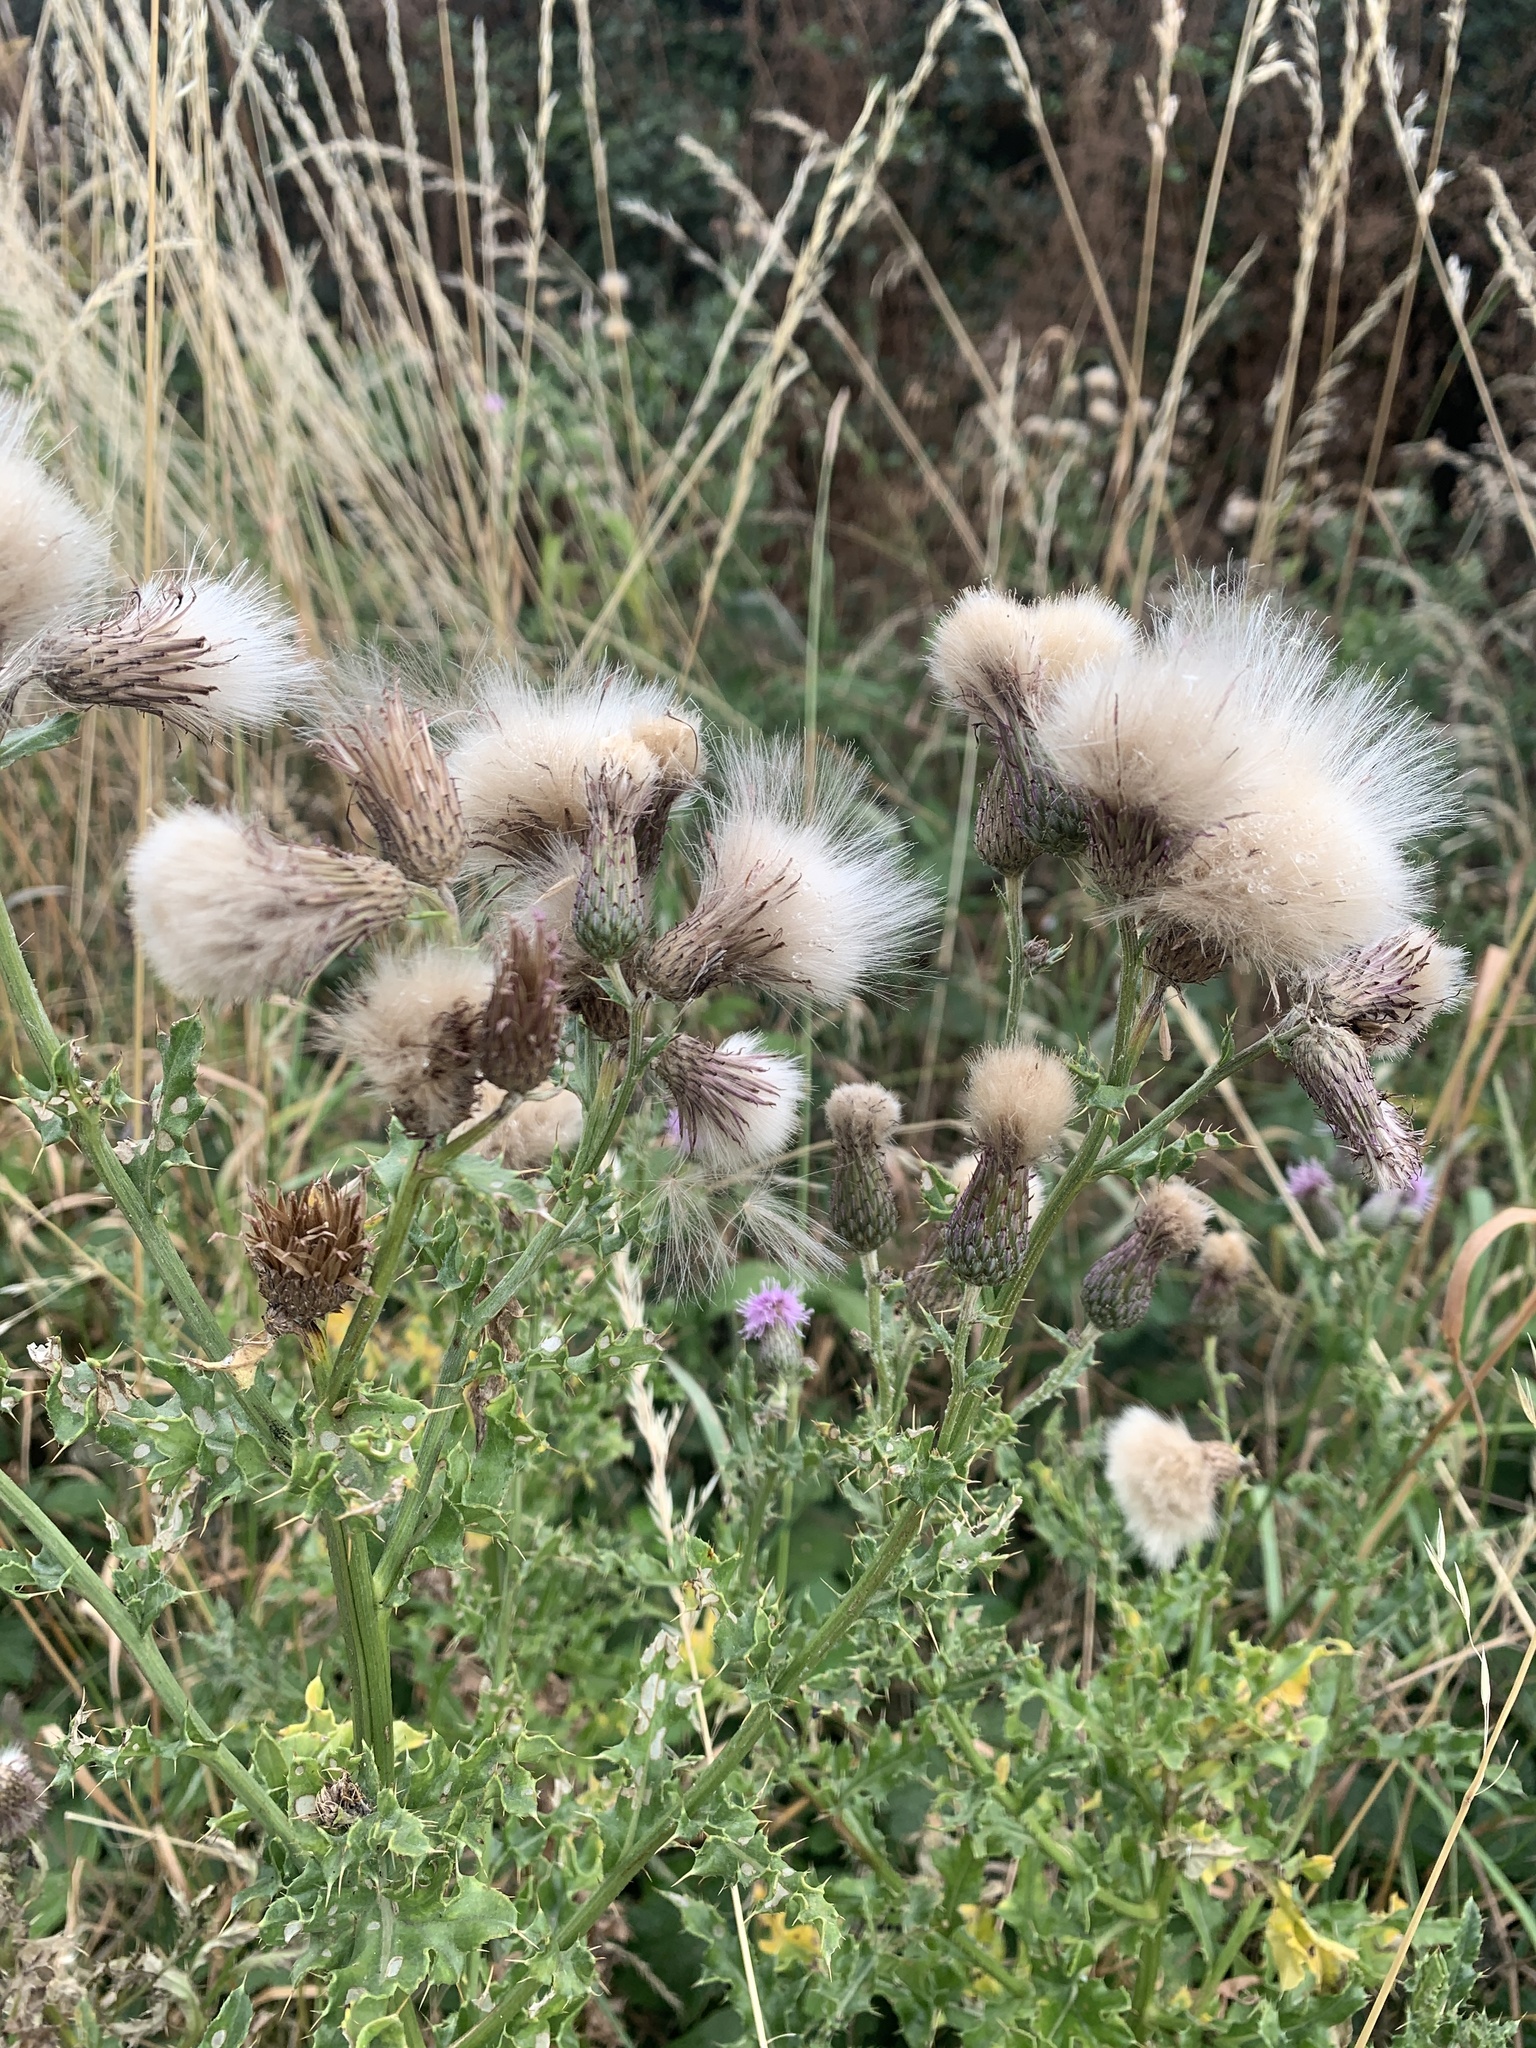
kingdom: Plantae
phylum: Tracheophyta
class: Magnoliopsida
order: Asterales
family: Asteraceae
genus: Cirsium
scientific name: Cirsium arvense
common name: Creeping thistle
